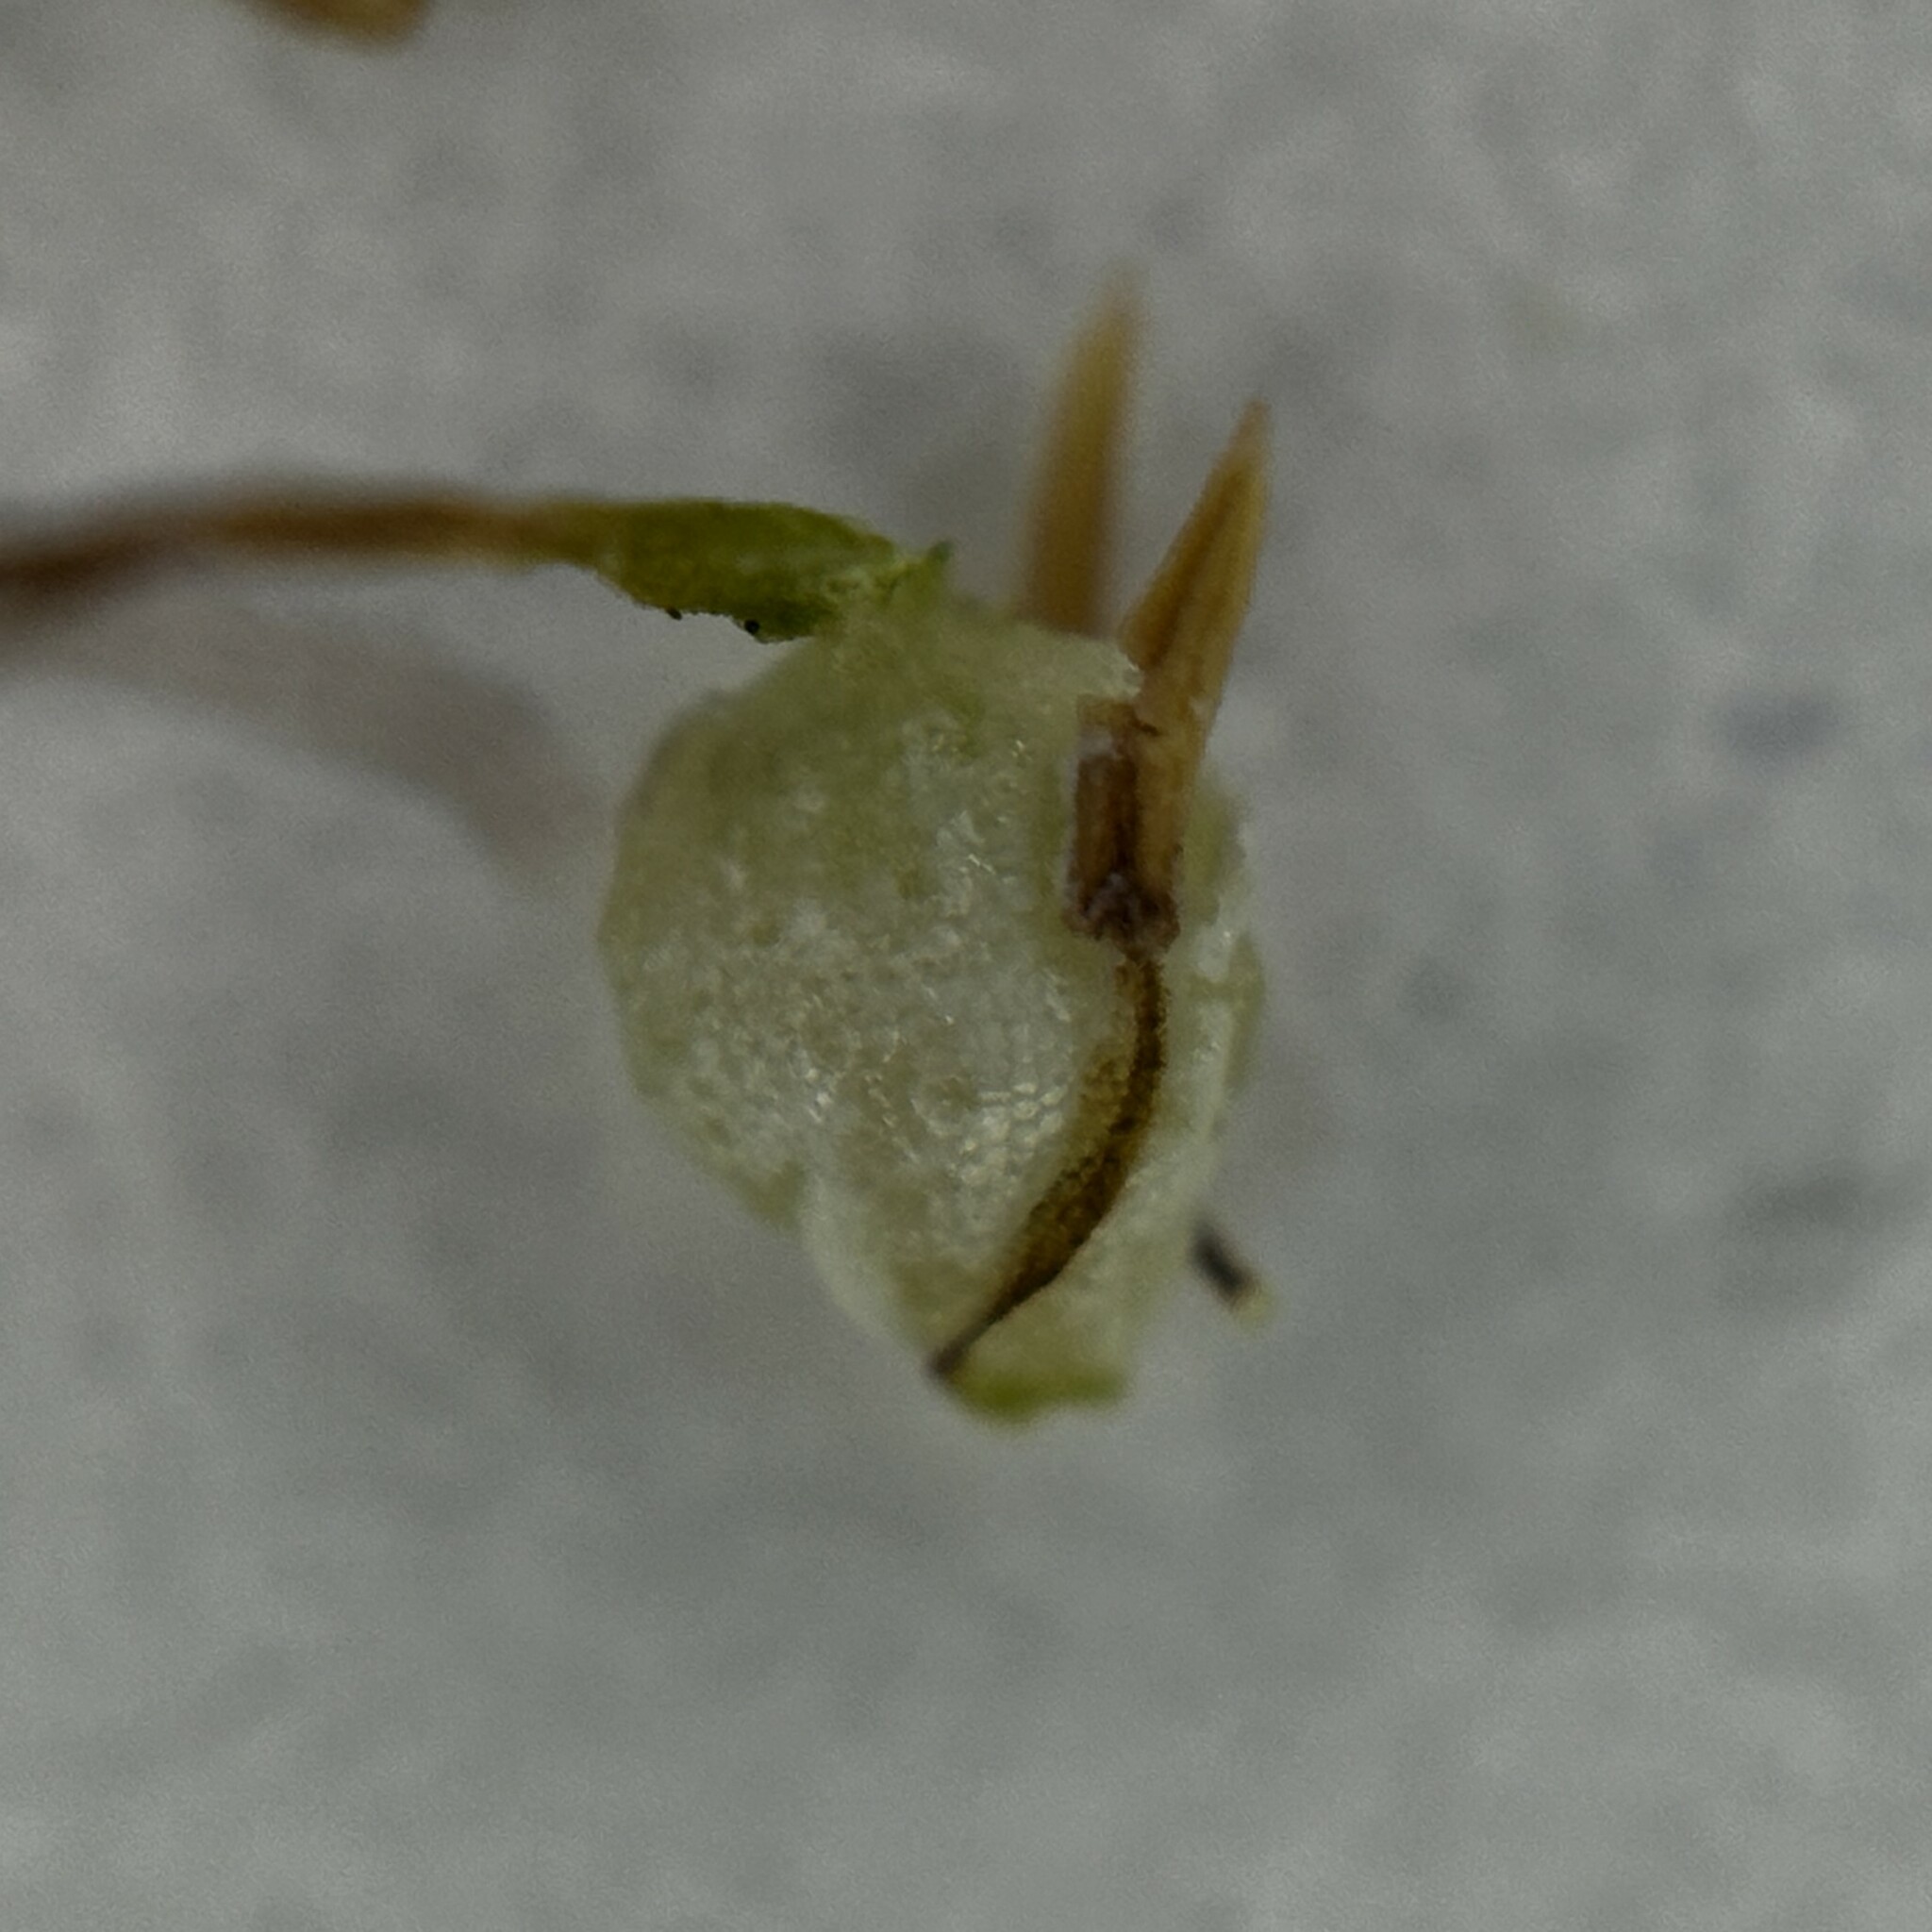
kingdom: Plantae
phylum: Tracheophyta
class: Liliopsida
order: Poales
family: Cyperaceae
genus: Fimbristylis
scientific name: Fimbristylis complanata
